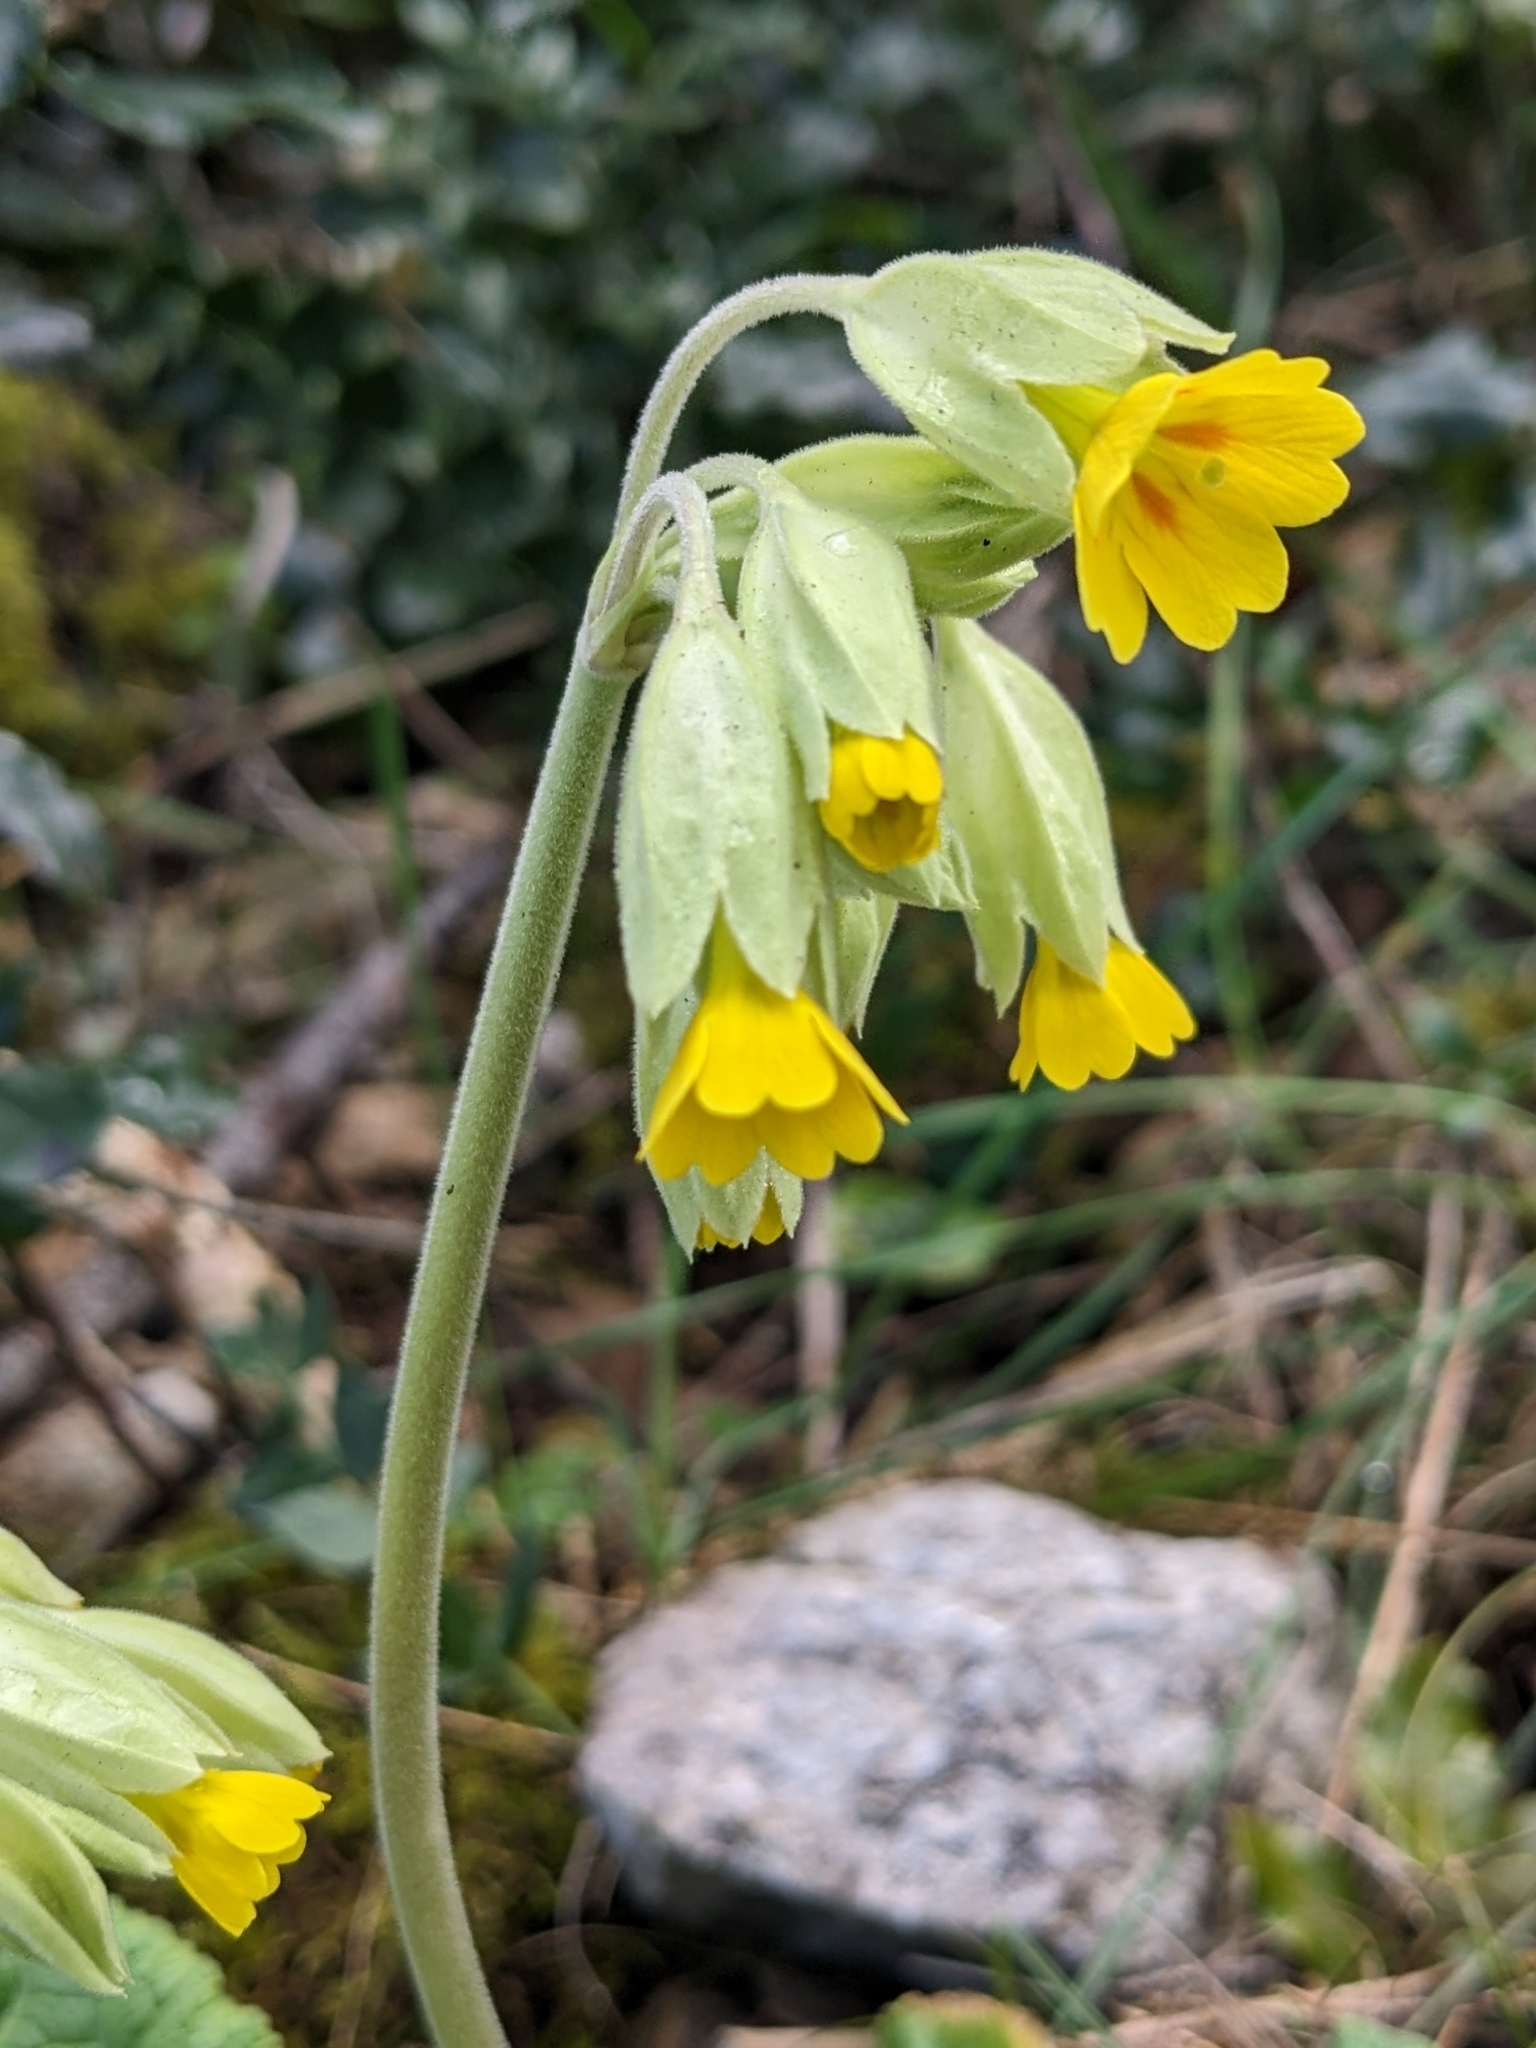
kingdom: Plantae
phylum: Tracheophyta
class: Magnoliopsida
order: Ericales
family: Primulaceae
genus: Primula
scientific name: Primula veris
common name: Cowslip
